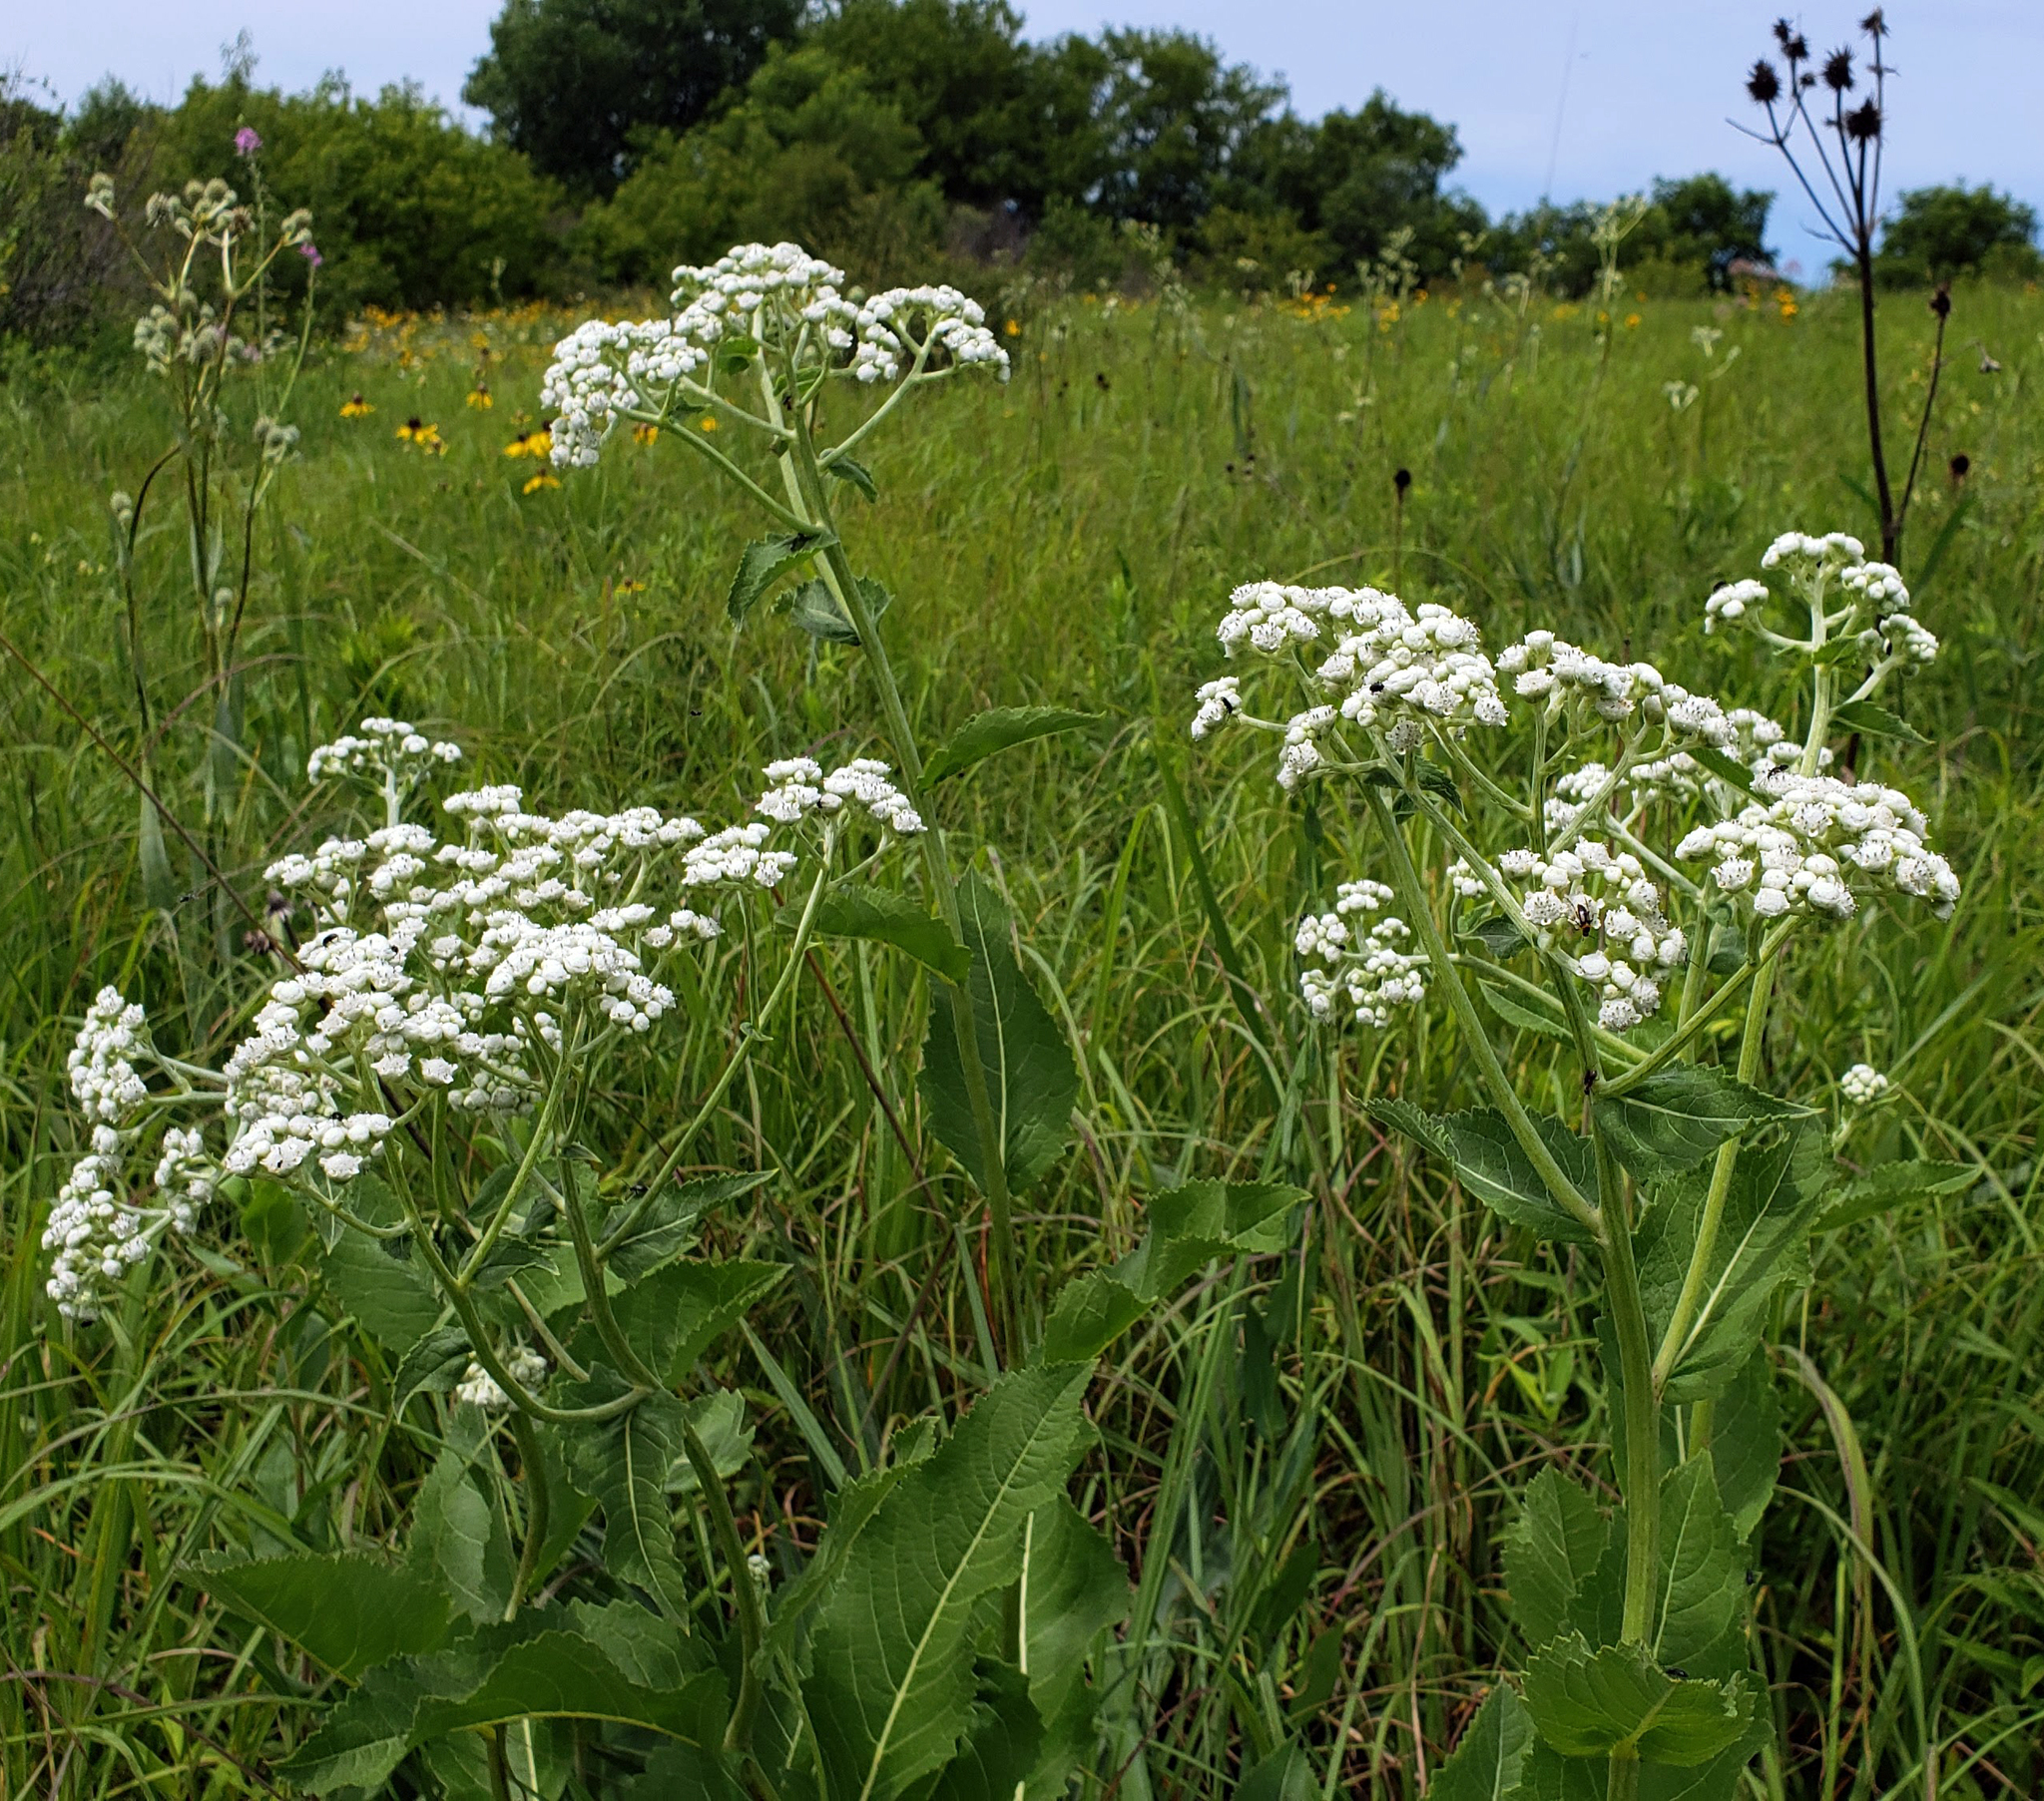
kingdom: Plantae
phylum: Tracheophyta
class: Magnoliopsida
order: Asterales
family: Asteraceae
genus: Parthenium
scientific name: Parthenium integrifolium
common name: American feverfew
